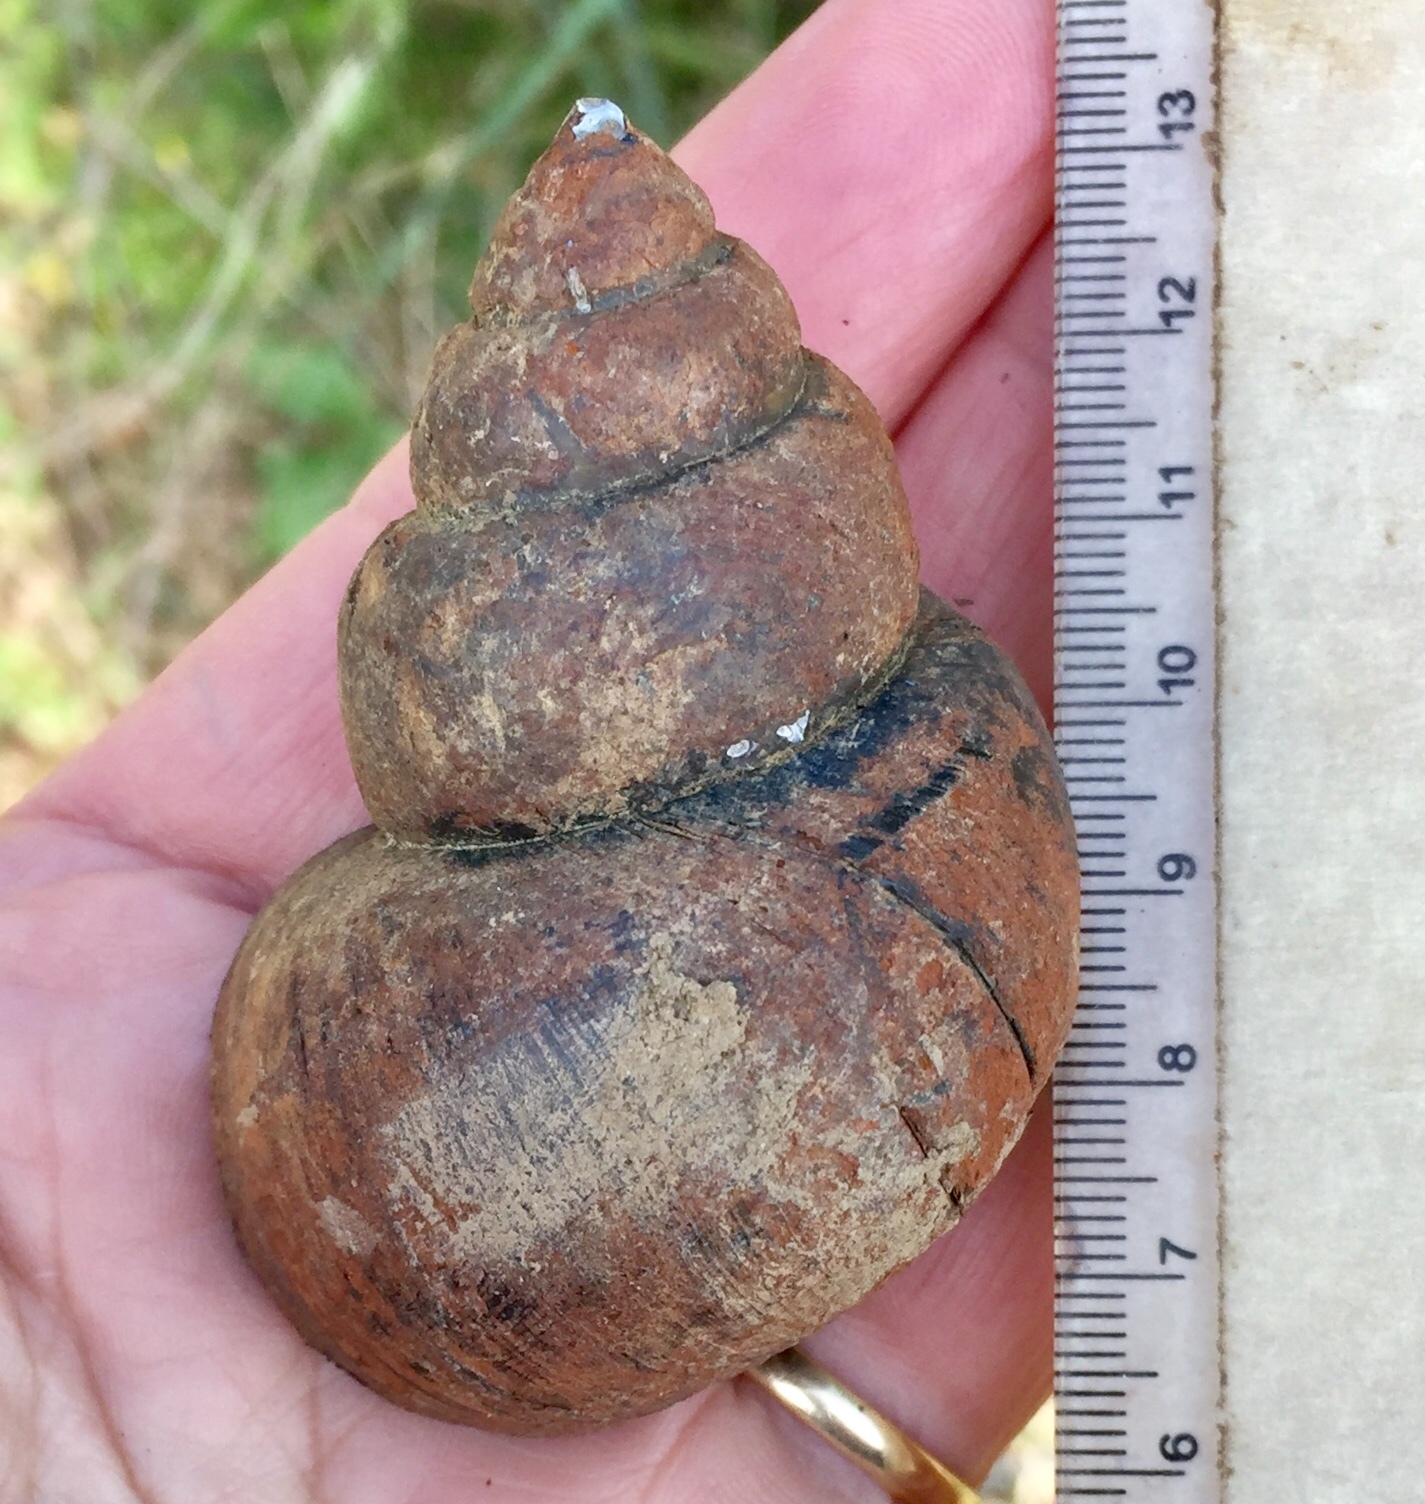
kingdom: Animalia
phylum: Mollusca
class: Gastropoda
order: Architaenioglossa
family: Viviparidae
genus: Cipangopaludina
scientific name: Cipangopaludina chinensis
